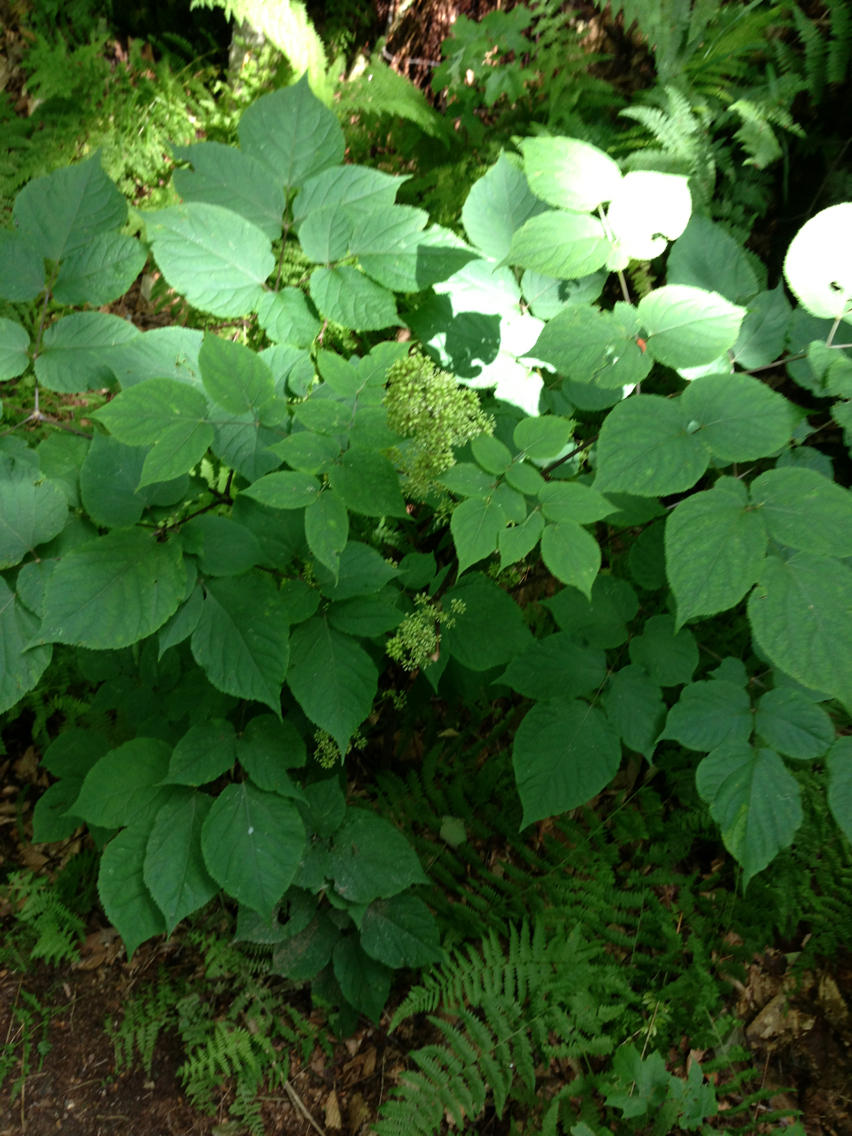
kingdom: Plantae
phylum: Tracheophyta
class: Magnoliopsida
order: Apiales
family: Araliaceae
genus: Aralia
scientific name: Aralia racemosa
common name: American-spikenard
